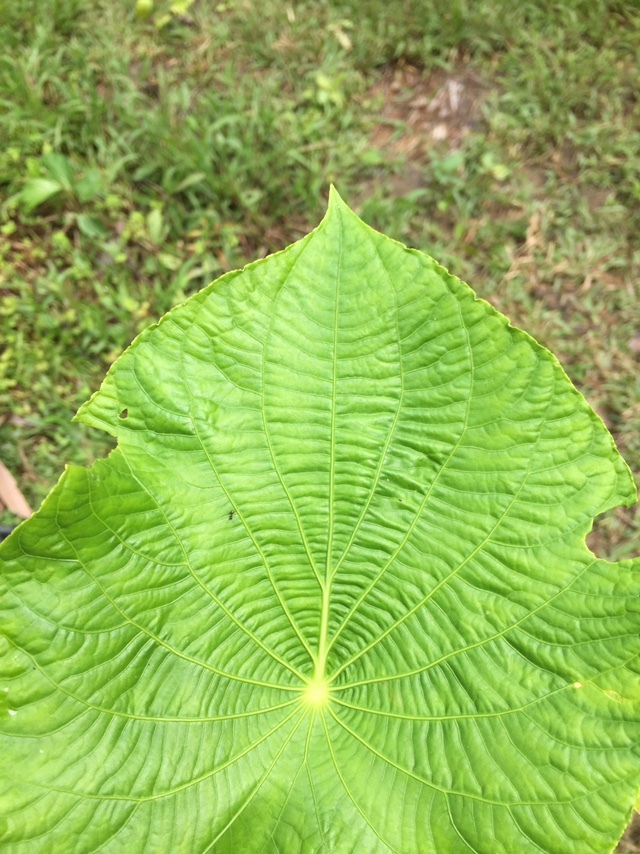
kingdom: Plantae
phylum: Tracheophyta
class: Magnoliopsida
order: Piperales
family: Piperaceae
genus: Piper
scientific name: Piper peltatum
